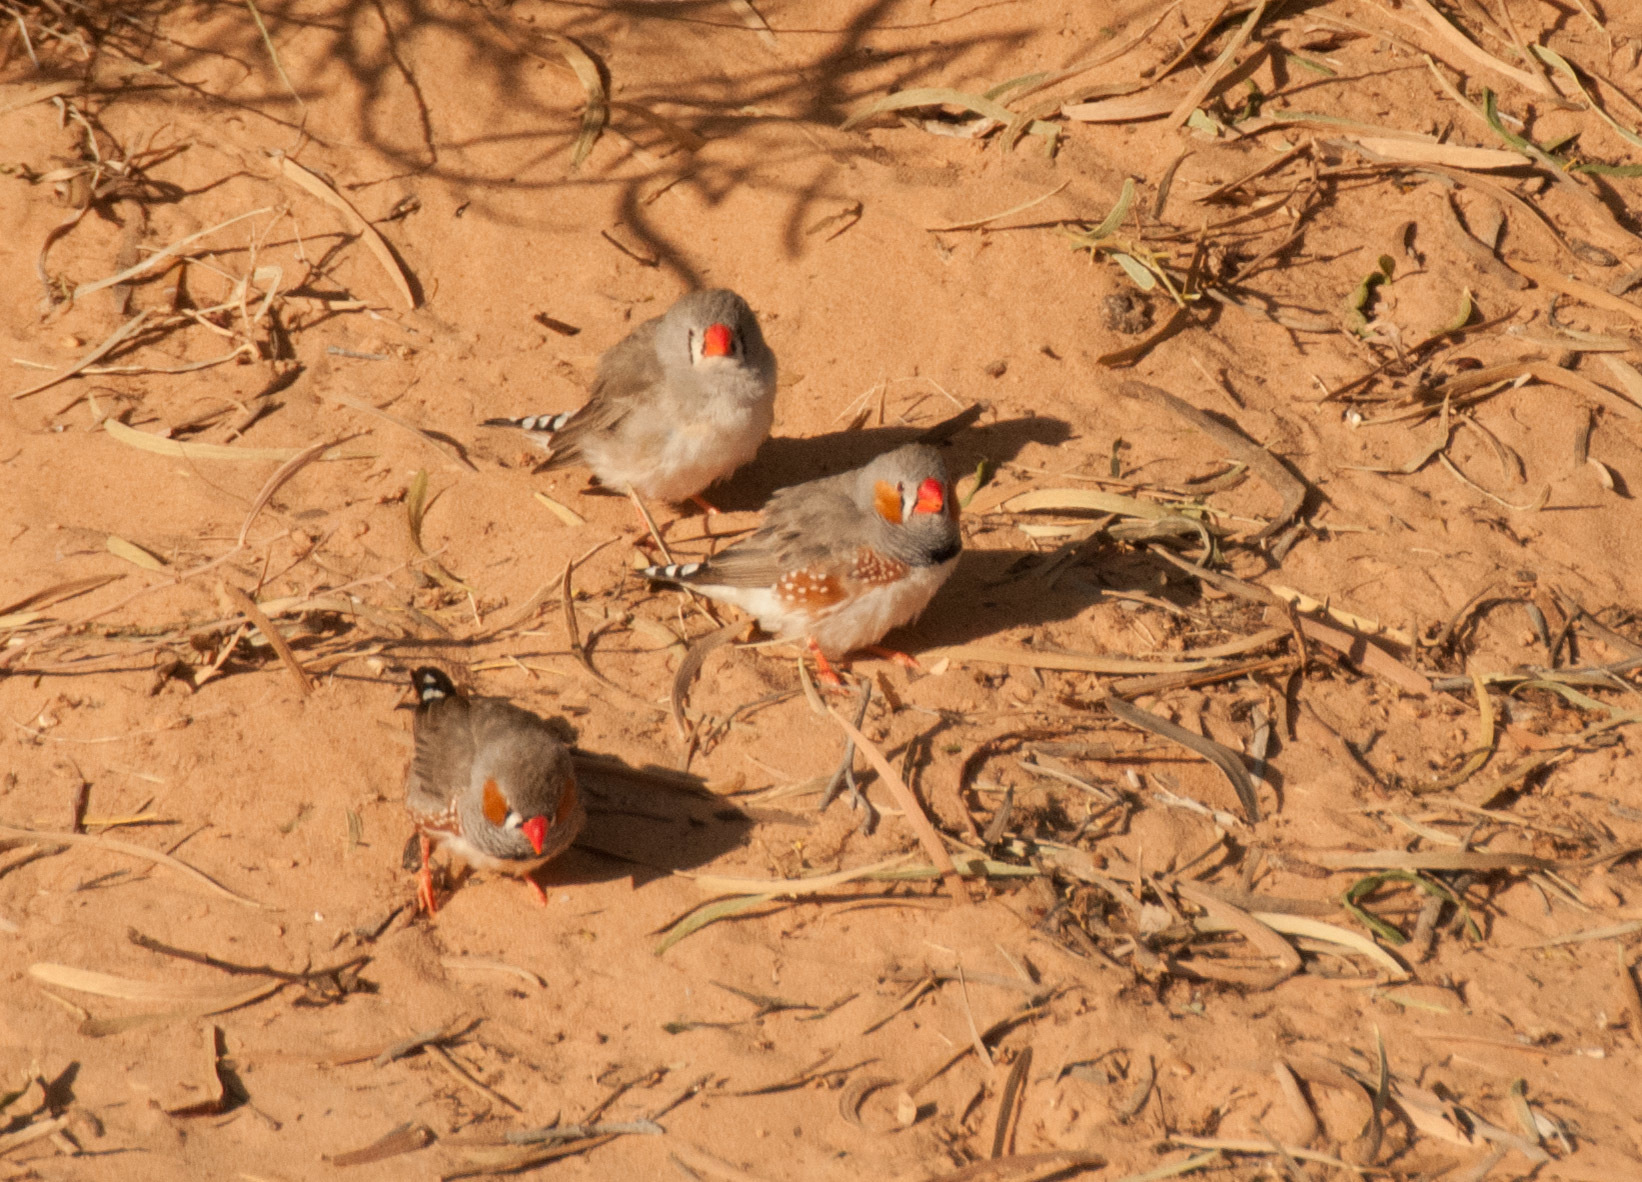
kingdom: Animalia
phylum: Chordata
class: Aves
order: Passeriformes
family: Estrildidae
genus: Taeniopygia
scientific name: Taeniopygia guttata
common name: Zebra finch
